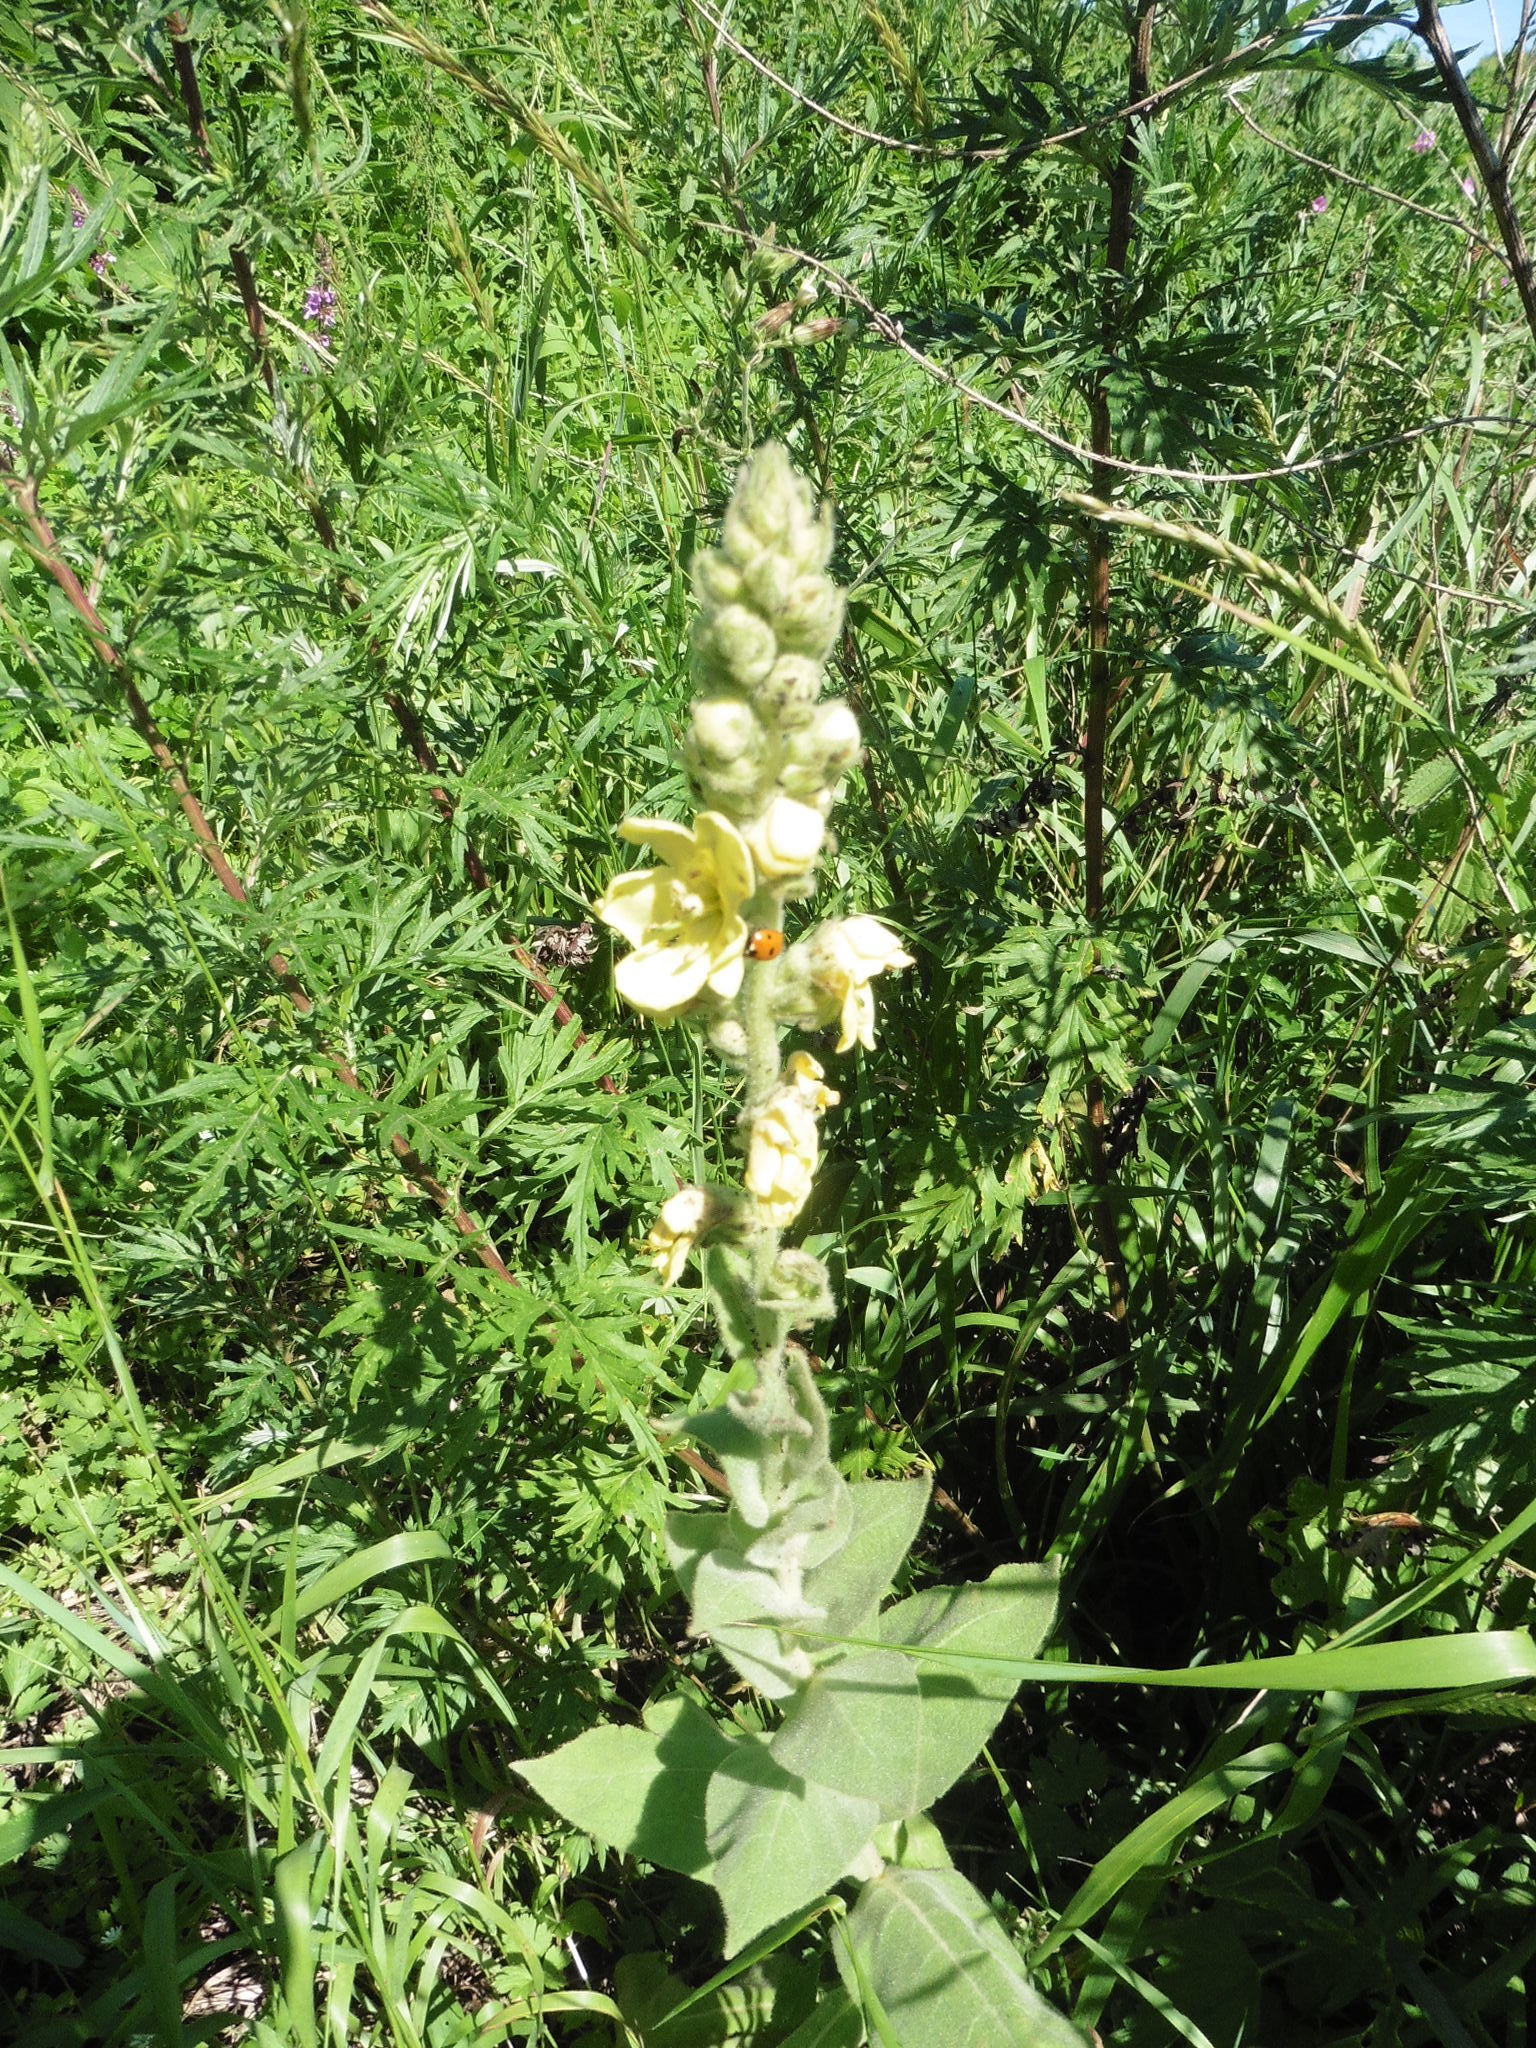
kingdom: Plantae
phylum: Tracheophyta
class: Magnoliopsida
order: Lamiales
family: Scrophulariaceae
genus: Verbascum
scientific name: Verbascum densiflorum
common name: Dense-flowered mullein
